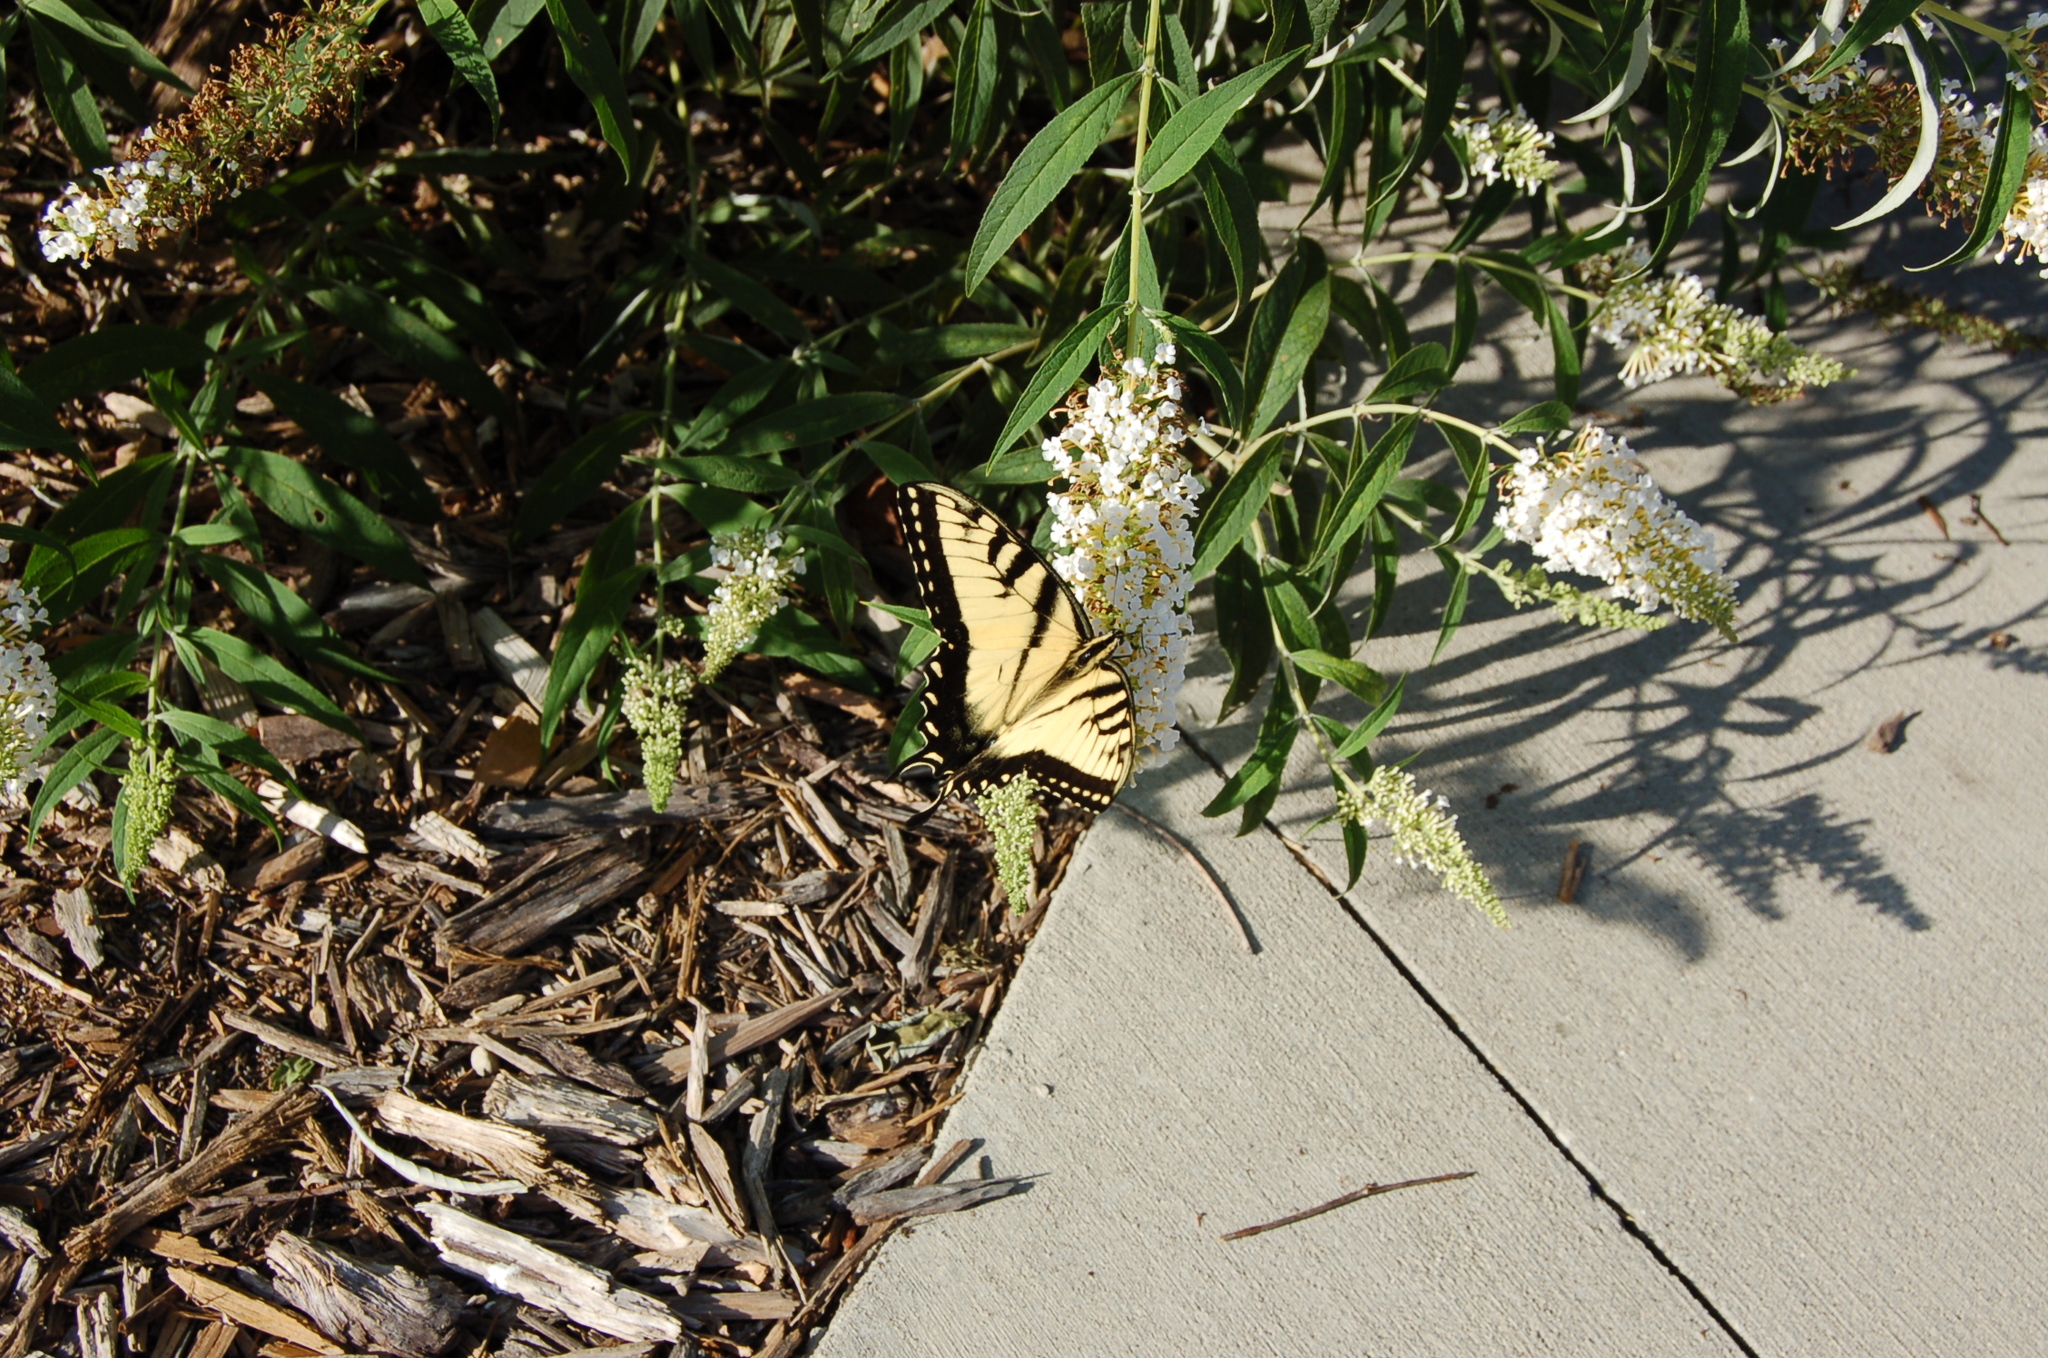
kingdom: Animalia
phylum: Arthropoda
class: Insecta
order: Lepidoptera
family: Papilionidae
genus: Papilio
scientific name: Papilio glaucus
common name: Tiger swallowtail
